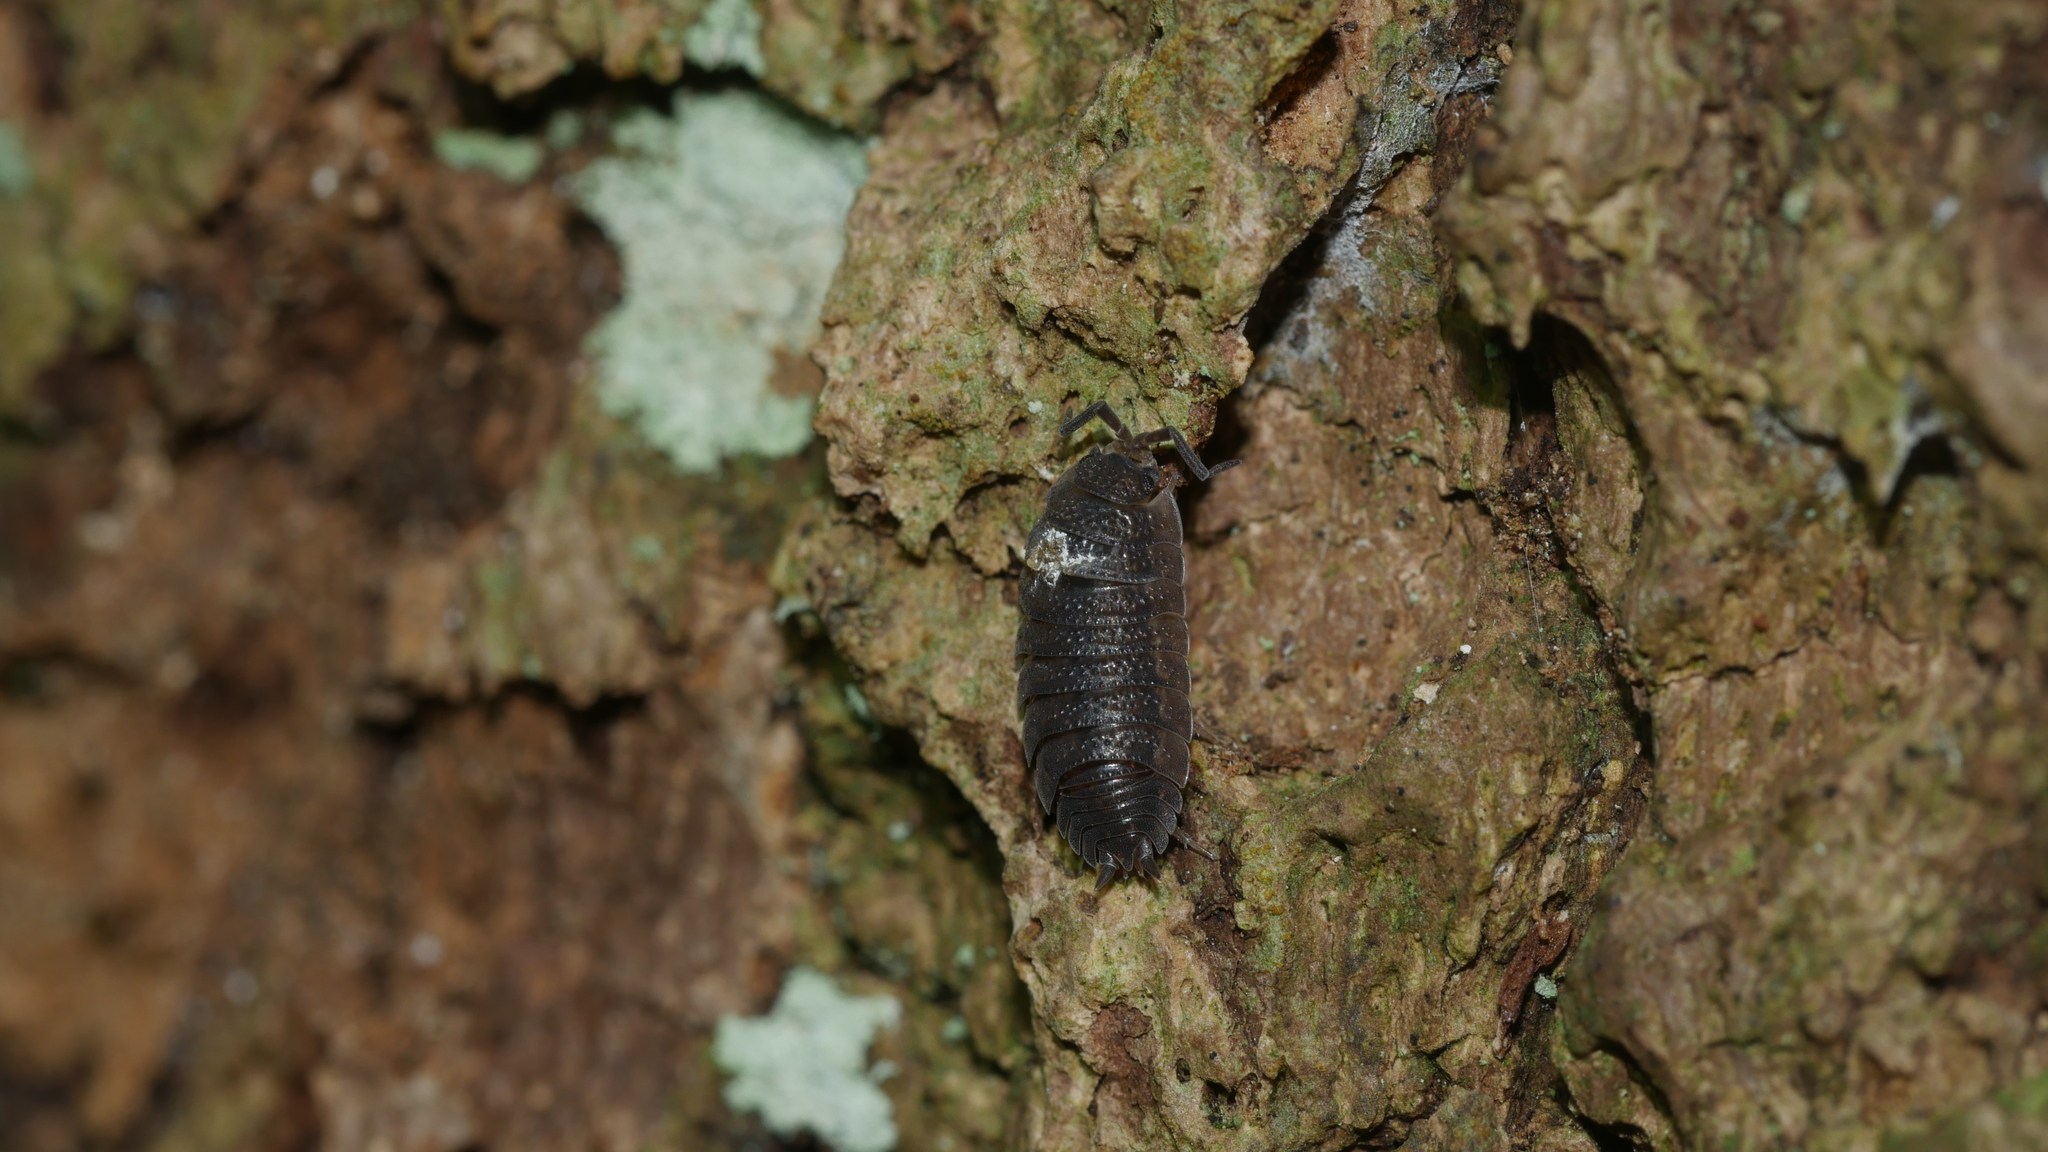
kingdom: Animalia
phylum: Arthropoda
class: Malacostraca
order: Isopoda
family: Porcellionidae
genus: Porcellio
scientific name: Porcellio scaber
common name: Common rough woodlouse
